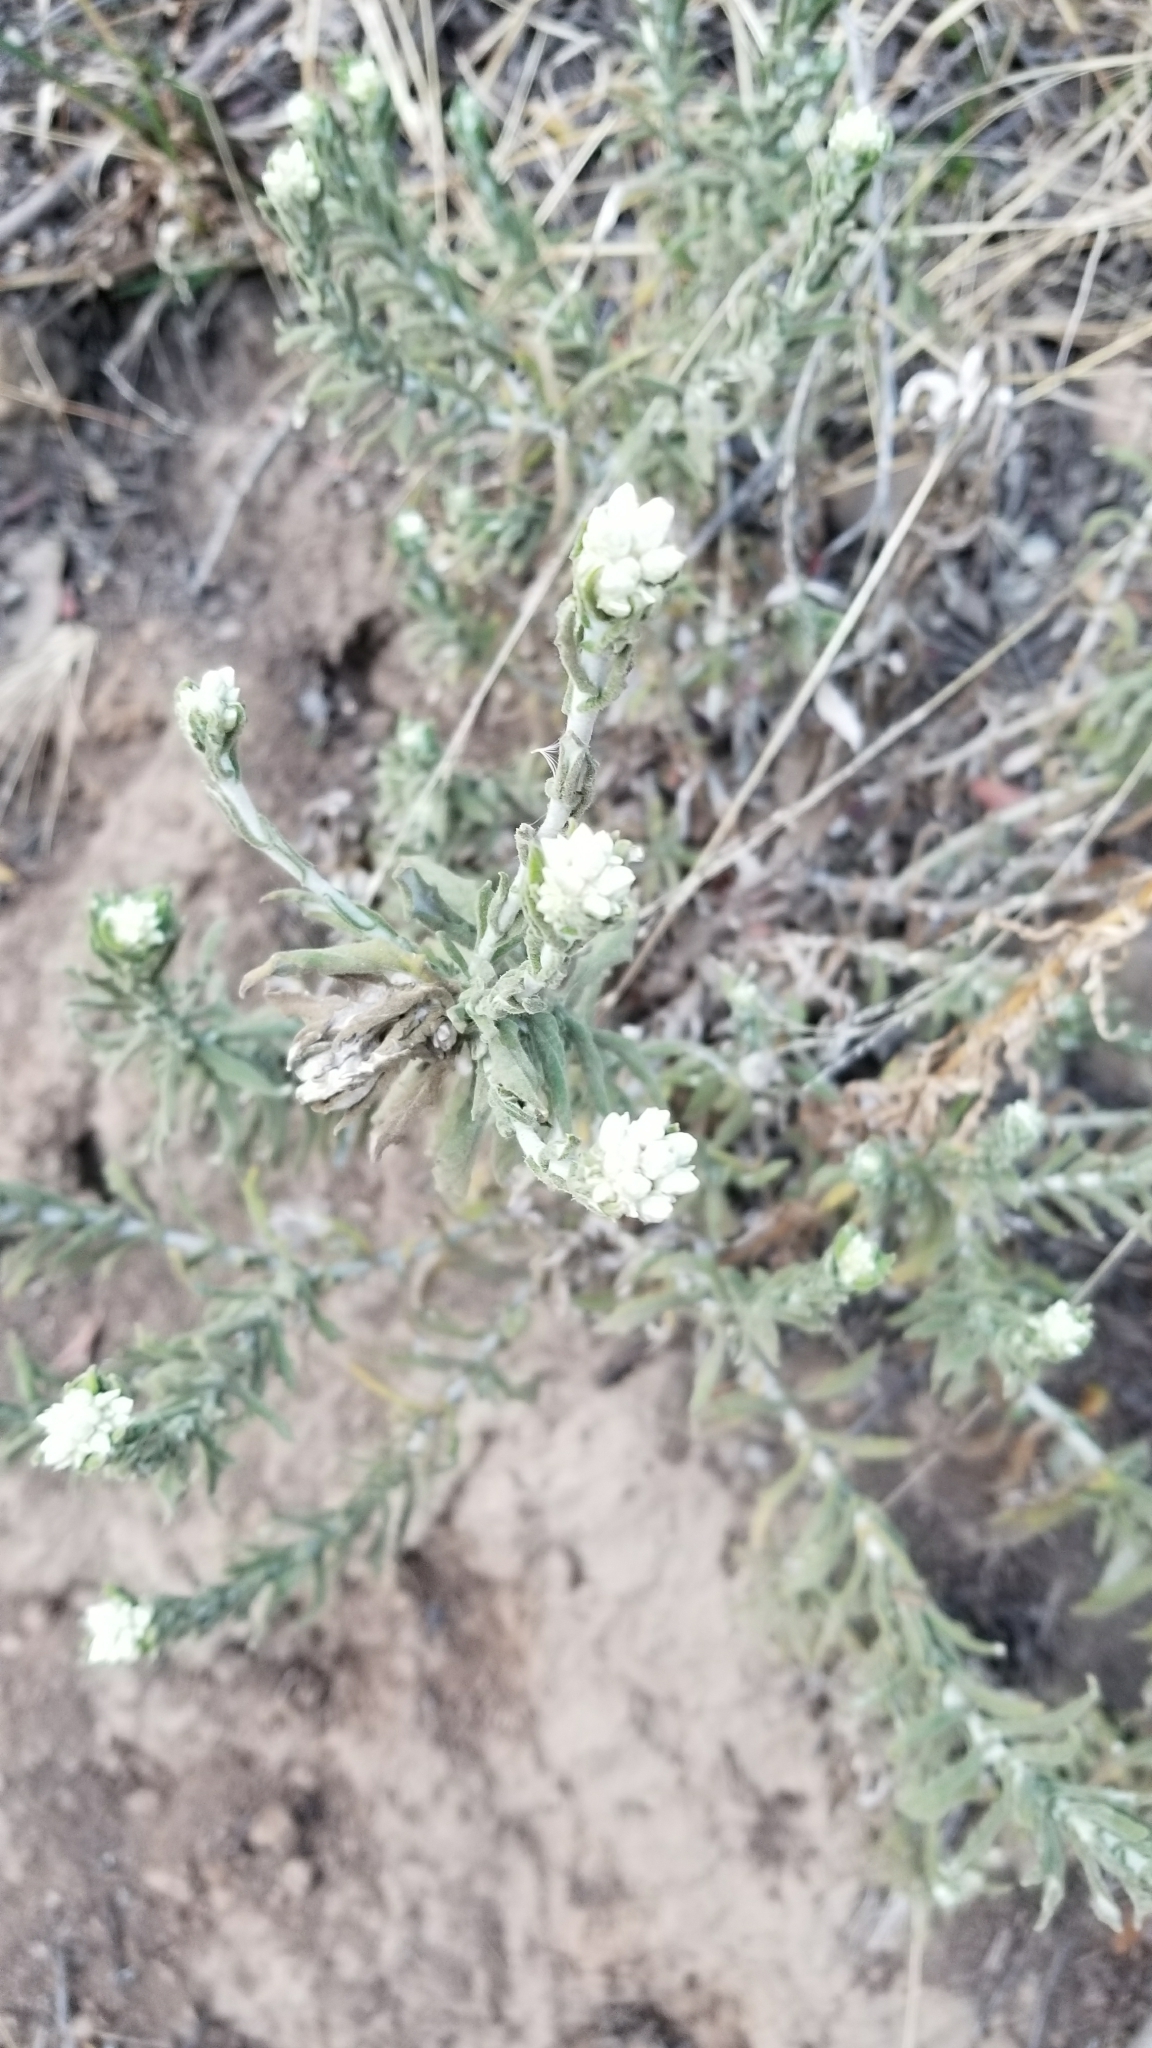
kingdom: Plantae
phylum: Tracheophyta
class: Magnoliopsida
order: Asterales
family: Asteraceae
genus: Pseudognaphalium
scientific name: Pseudognaphalium biolettii
